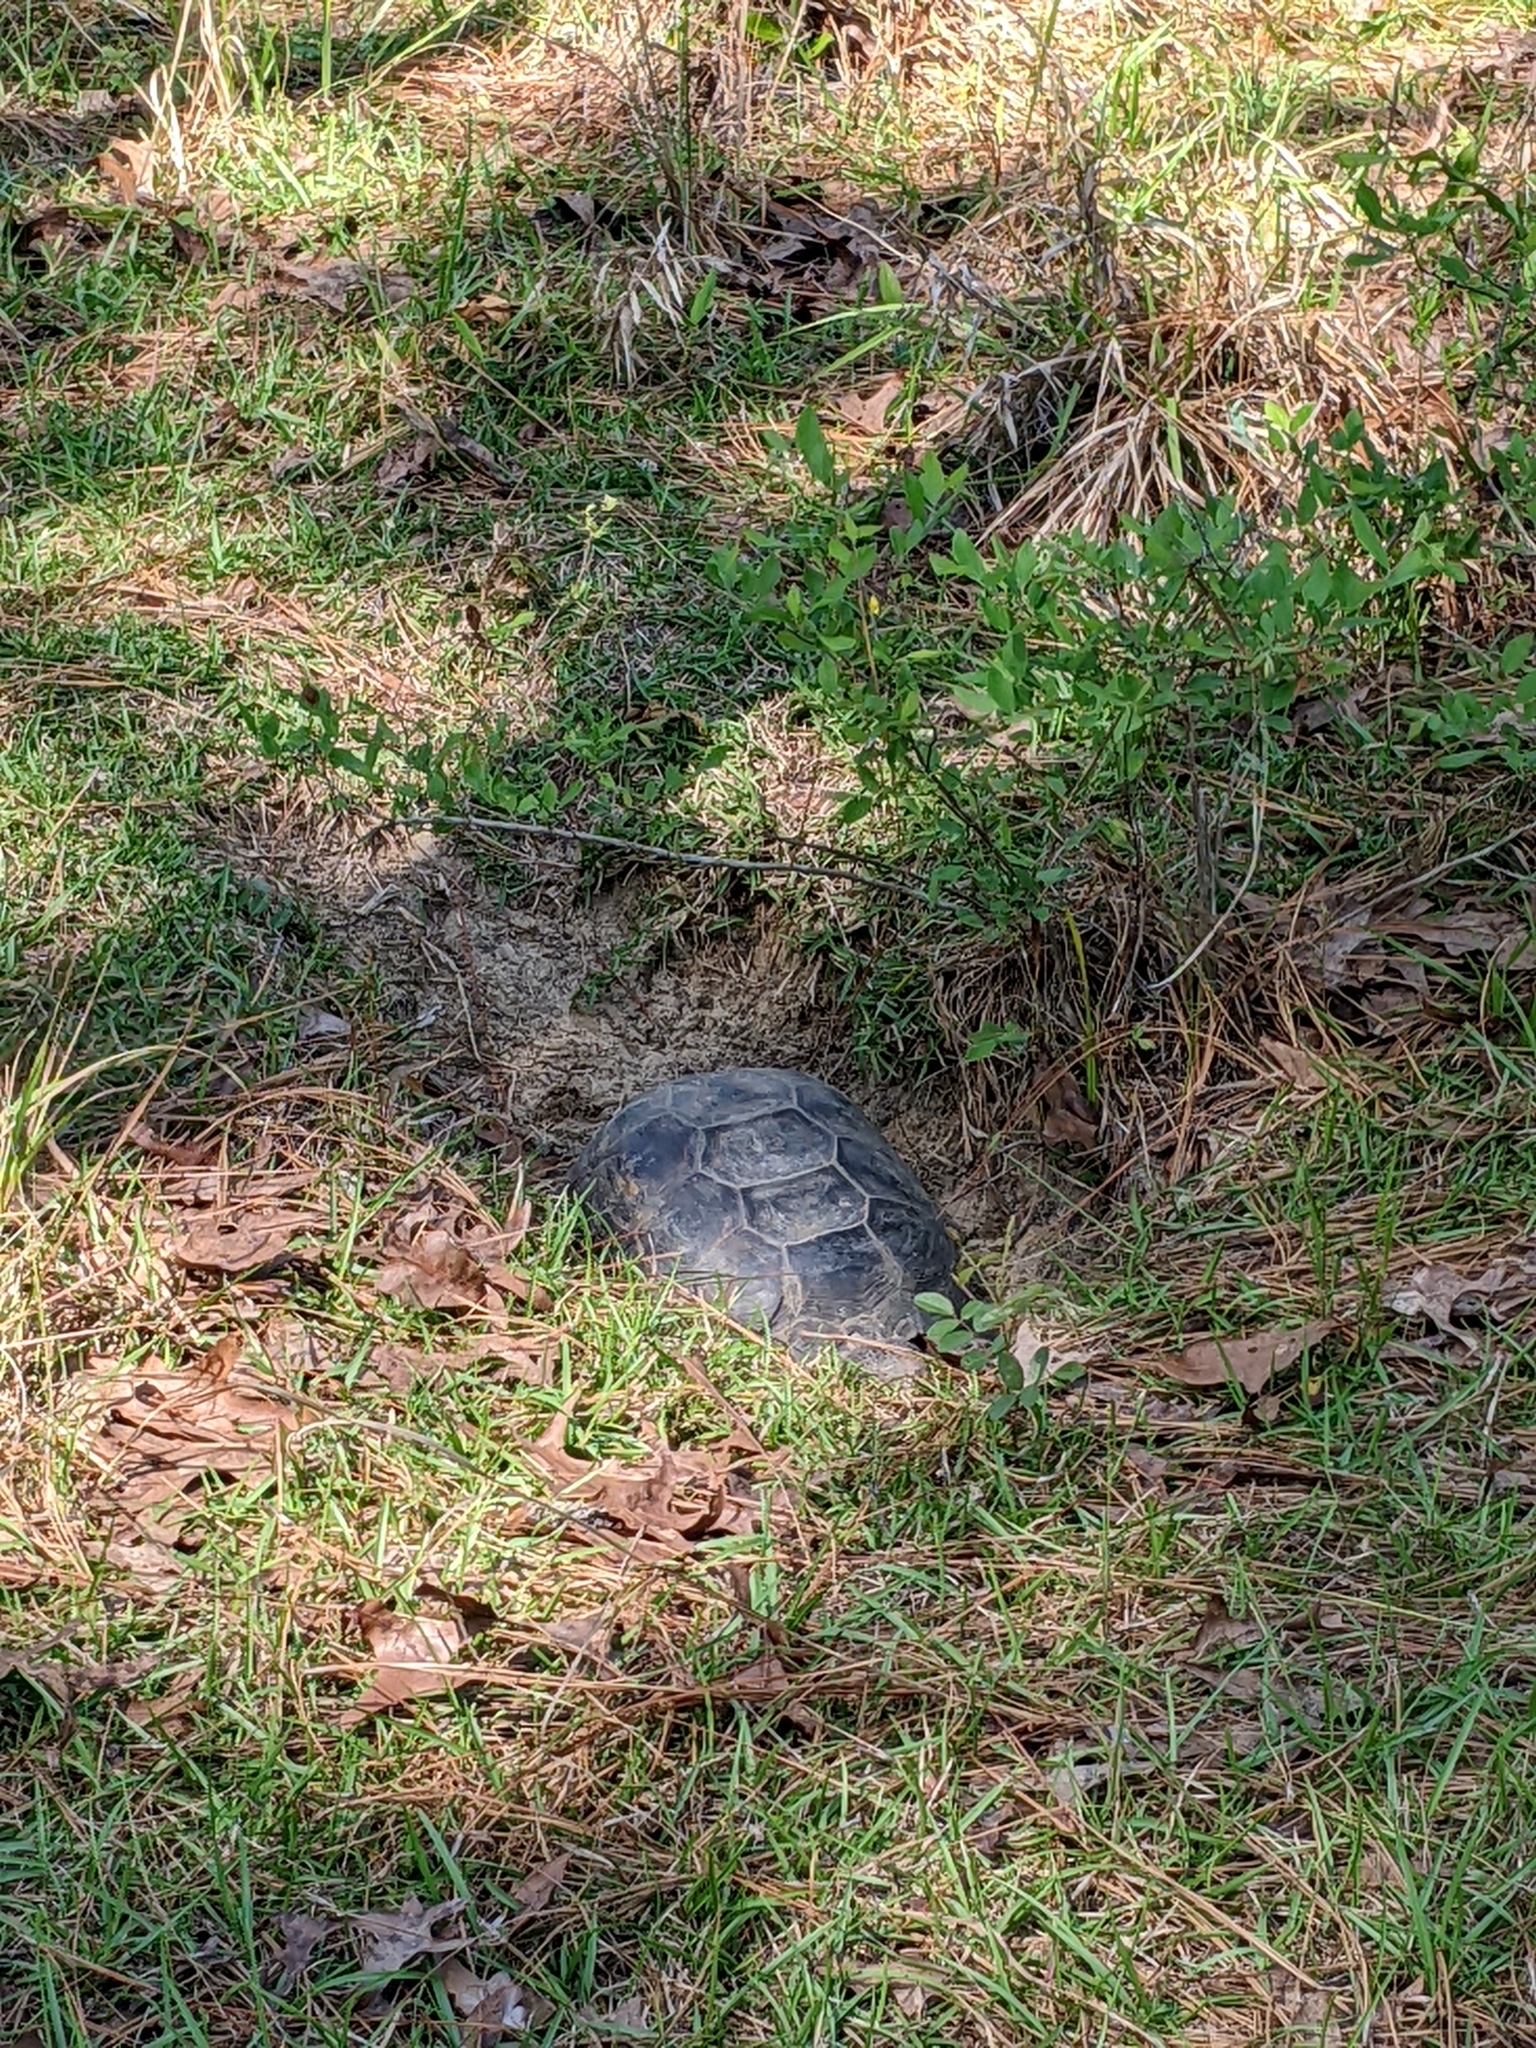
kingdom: Animalia
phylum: Chordata
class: Testudines
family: Testudinidae
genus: Gopherus
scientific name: Gopherus polyphemus
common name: Florida gopher tortoise
